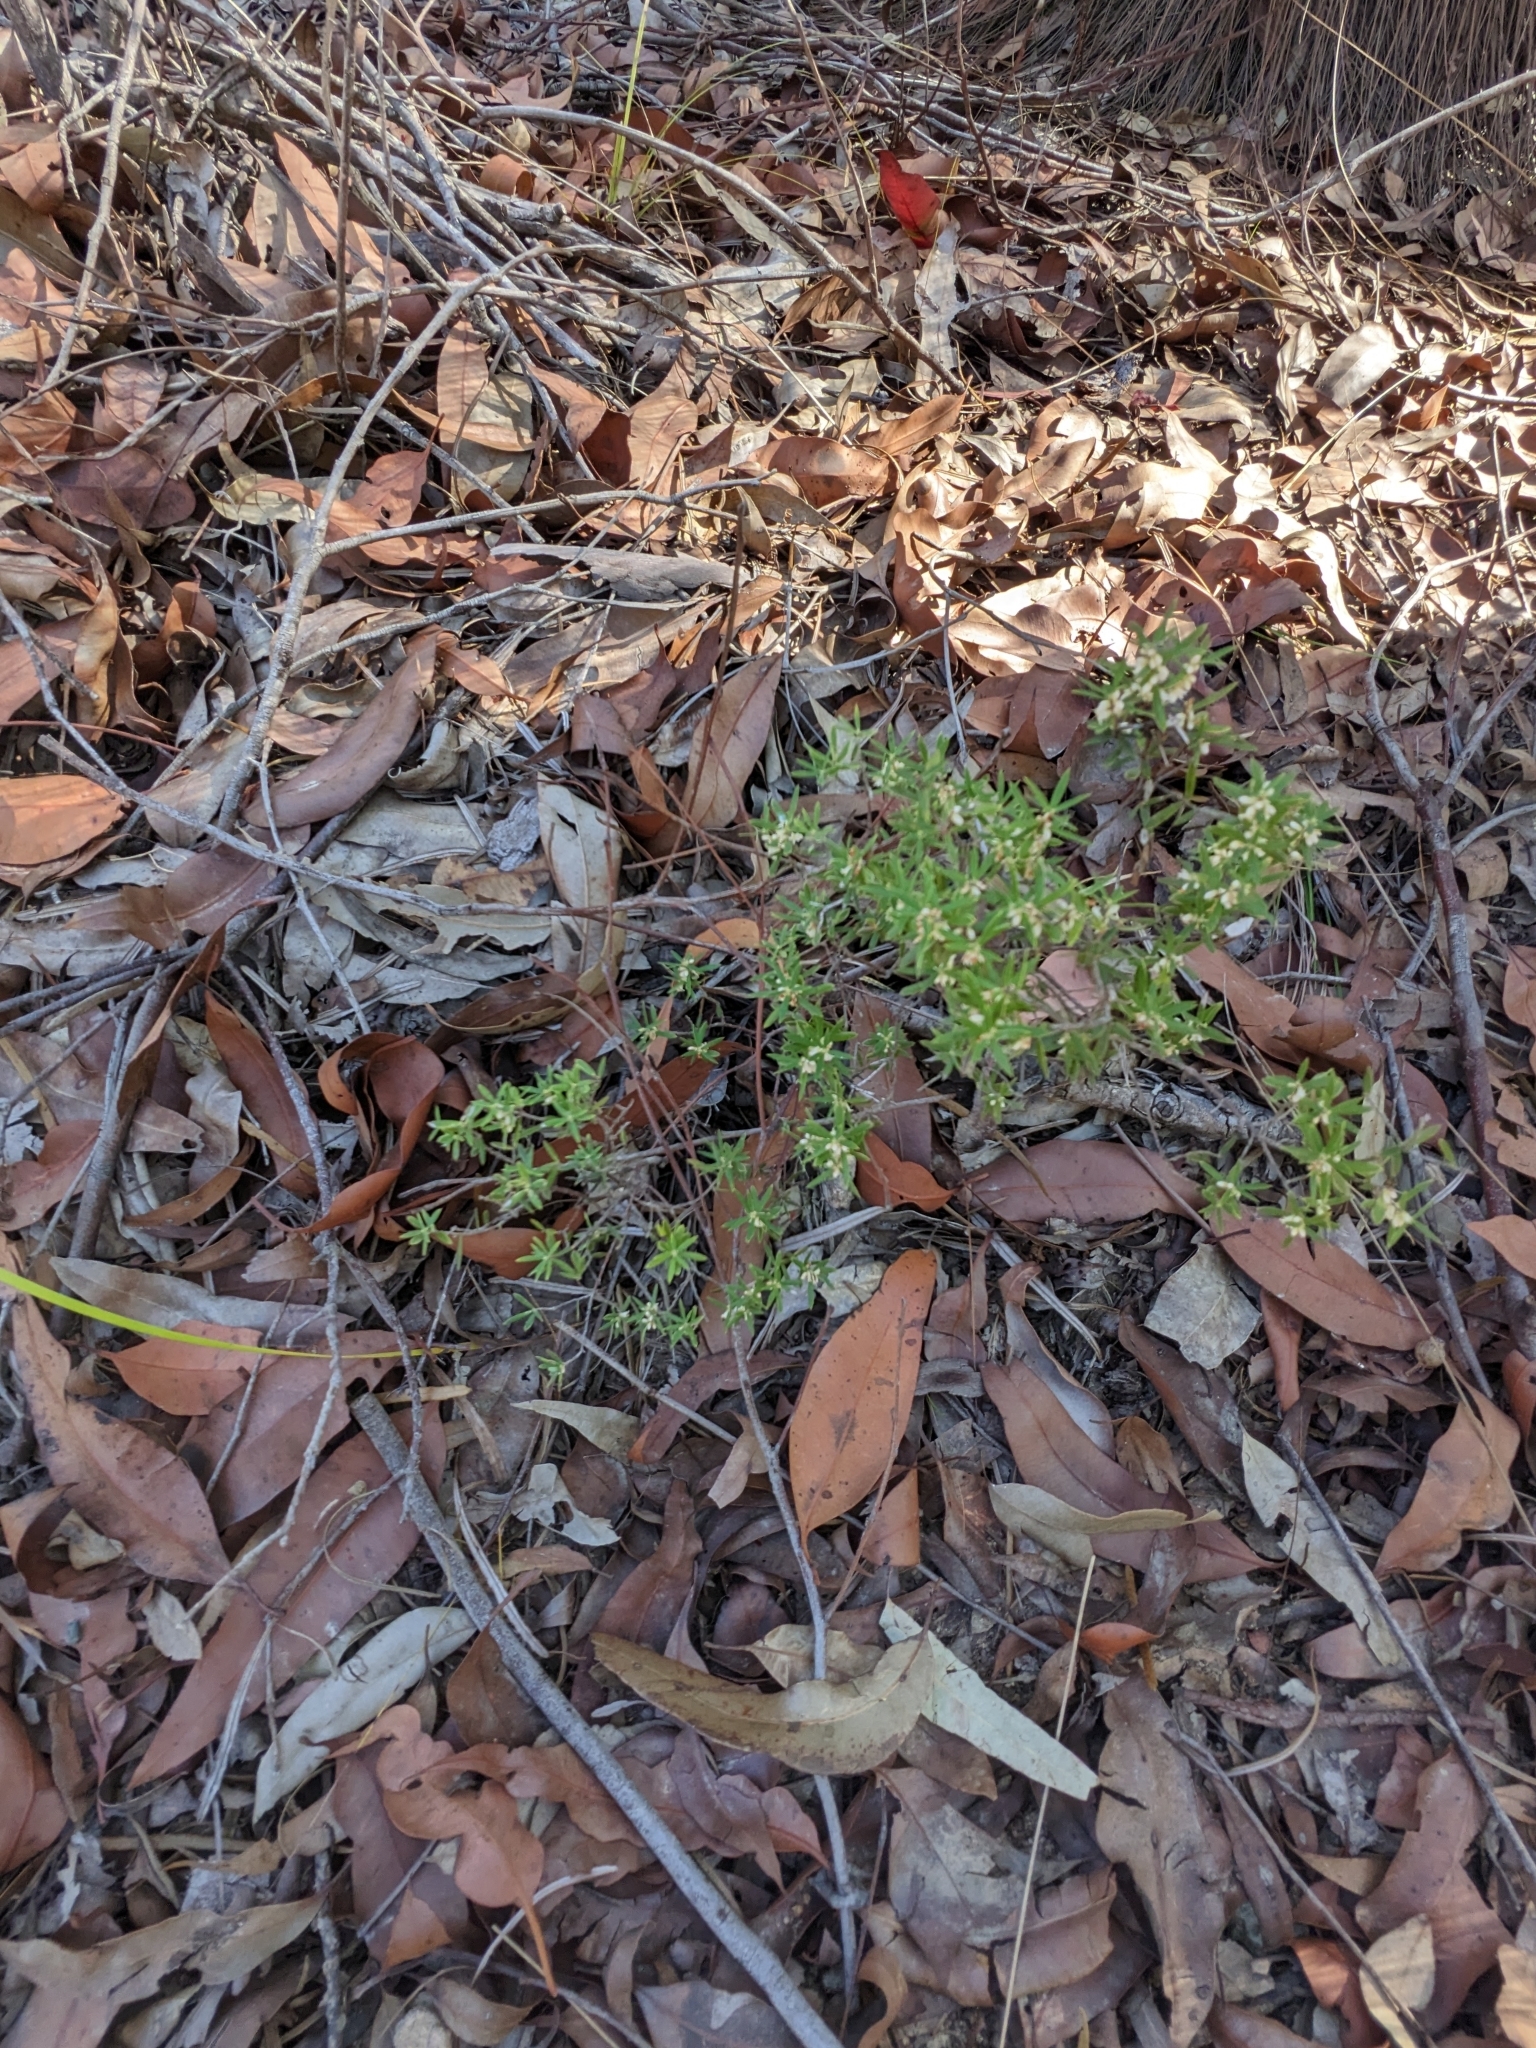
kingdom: Plantae
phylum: Tracheophyta
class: Magnoliopsida
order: Ericales
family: Ericaceae
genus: Monotoca
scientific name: Monotoca scoparia
